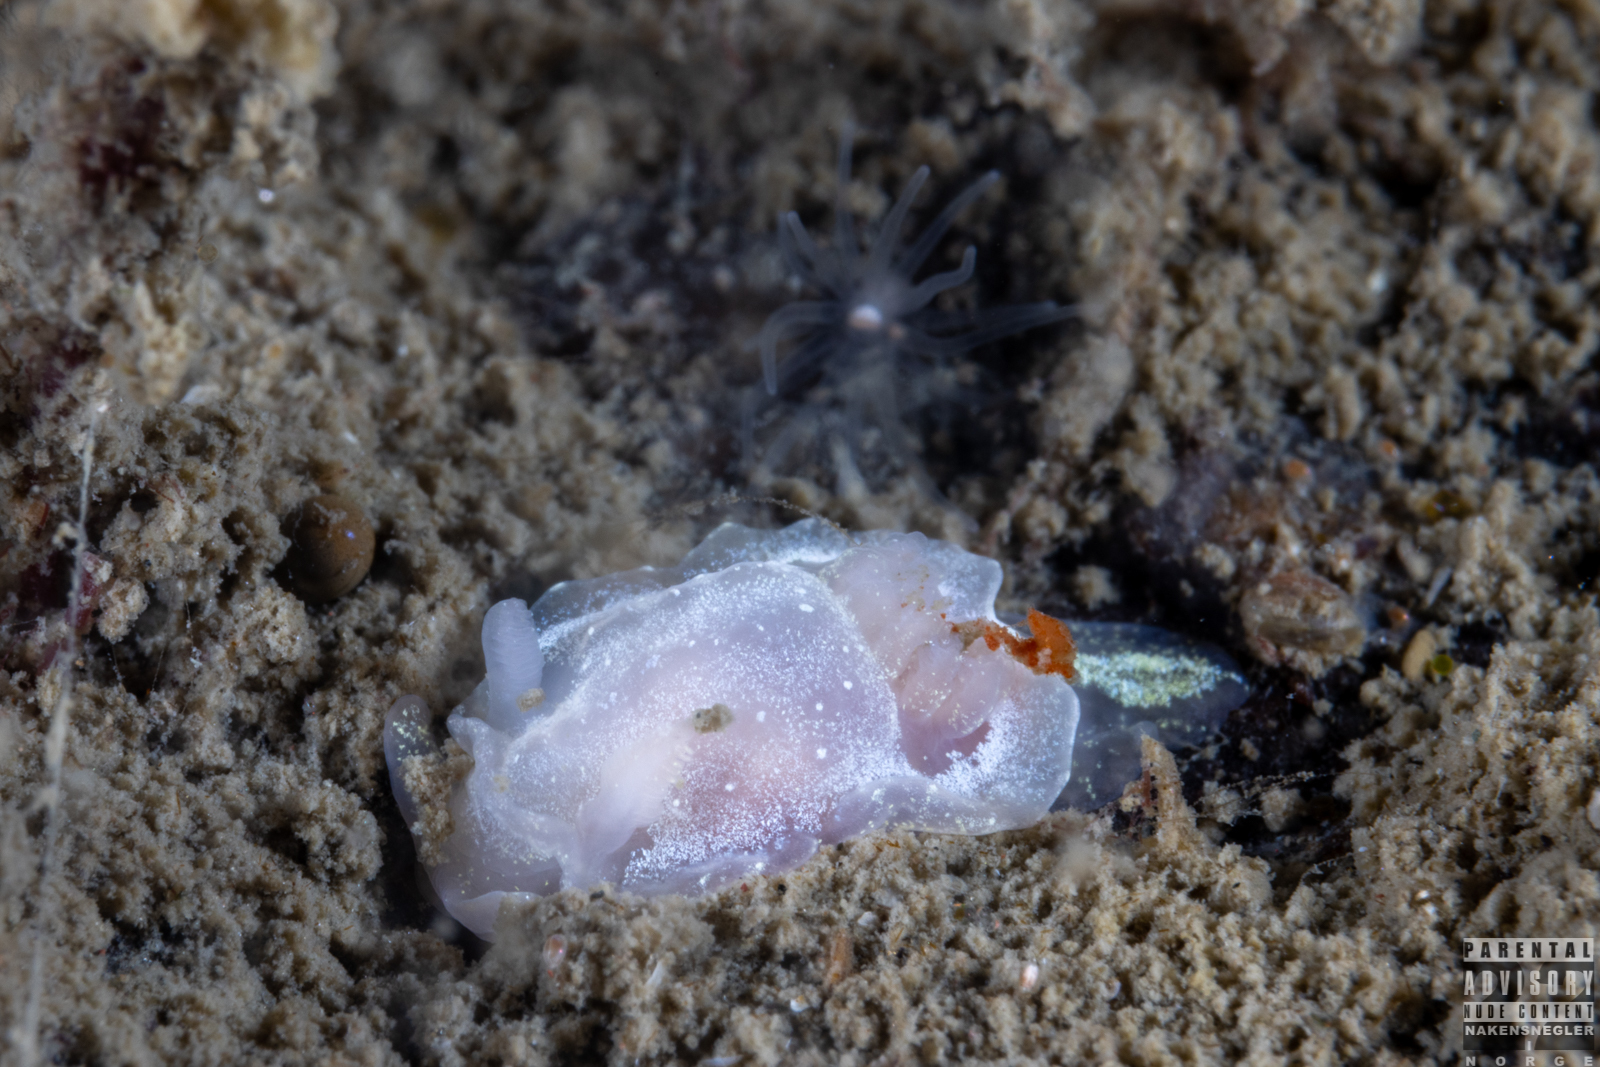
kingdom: Animalia
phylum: Mollusca
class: Gastropoda
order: Nudibranchia
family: Goniodorididae
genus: Okenia
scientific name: Okenia
